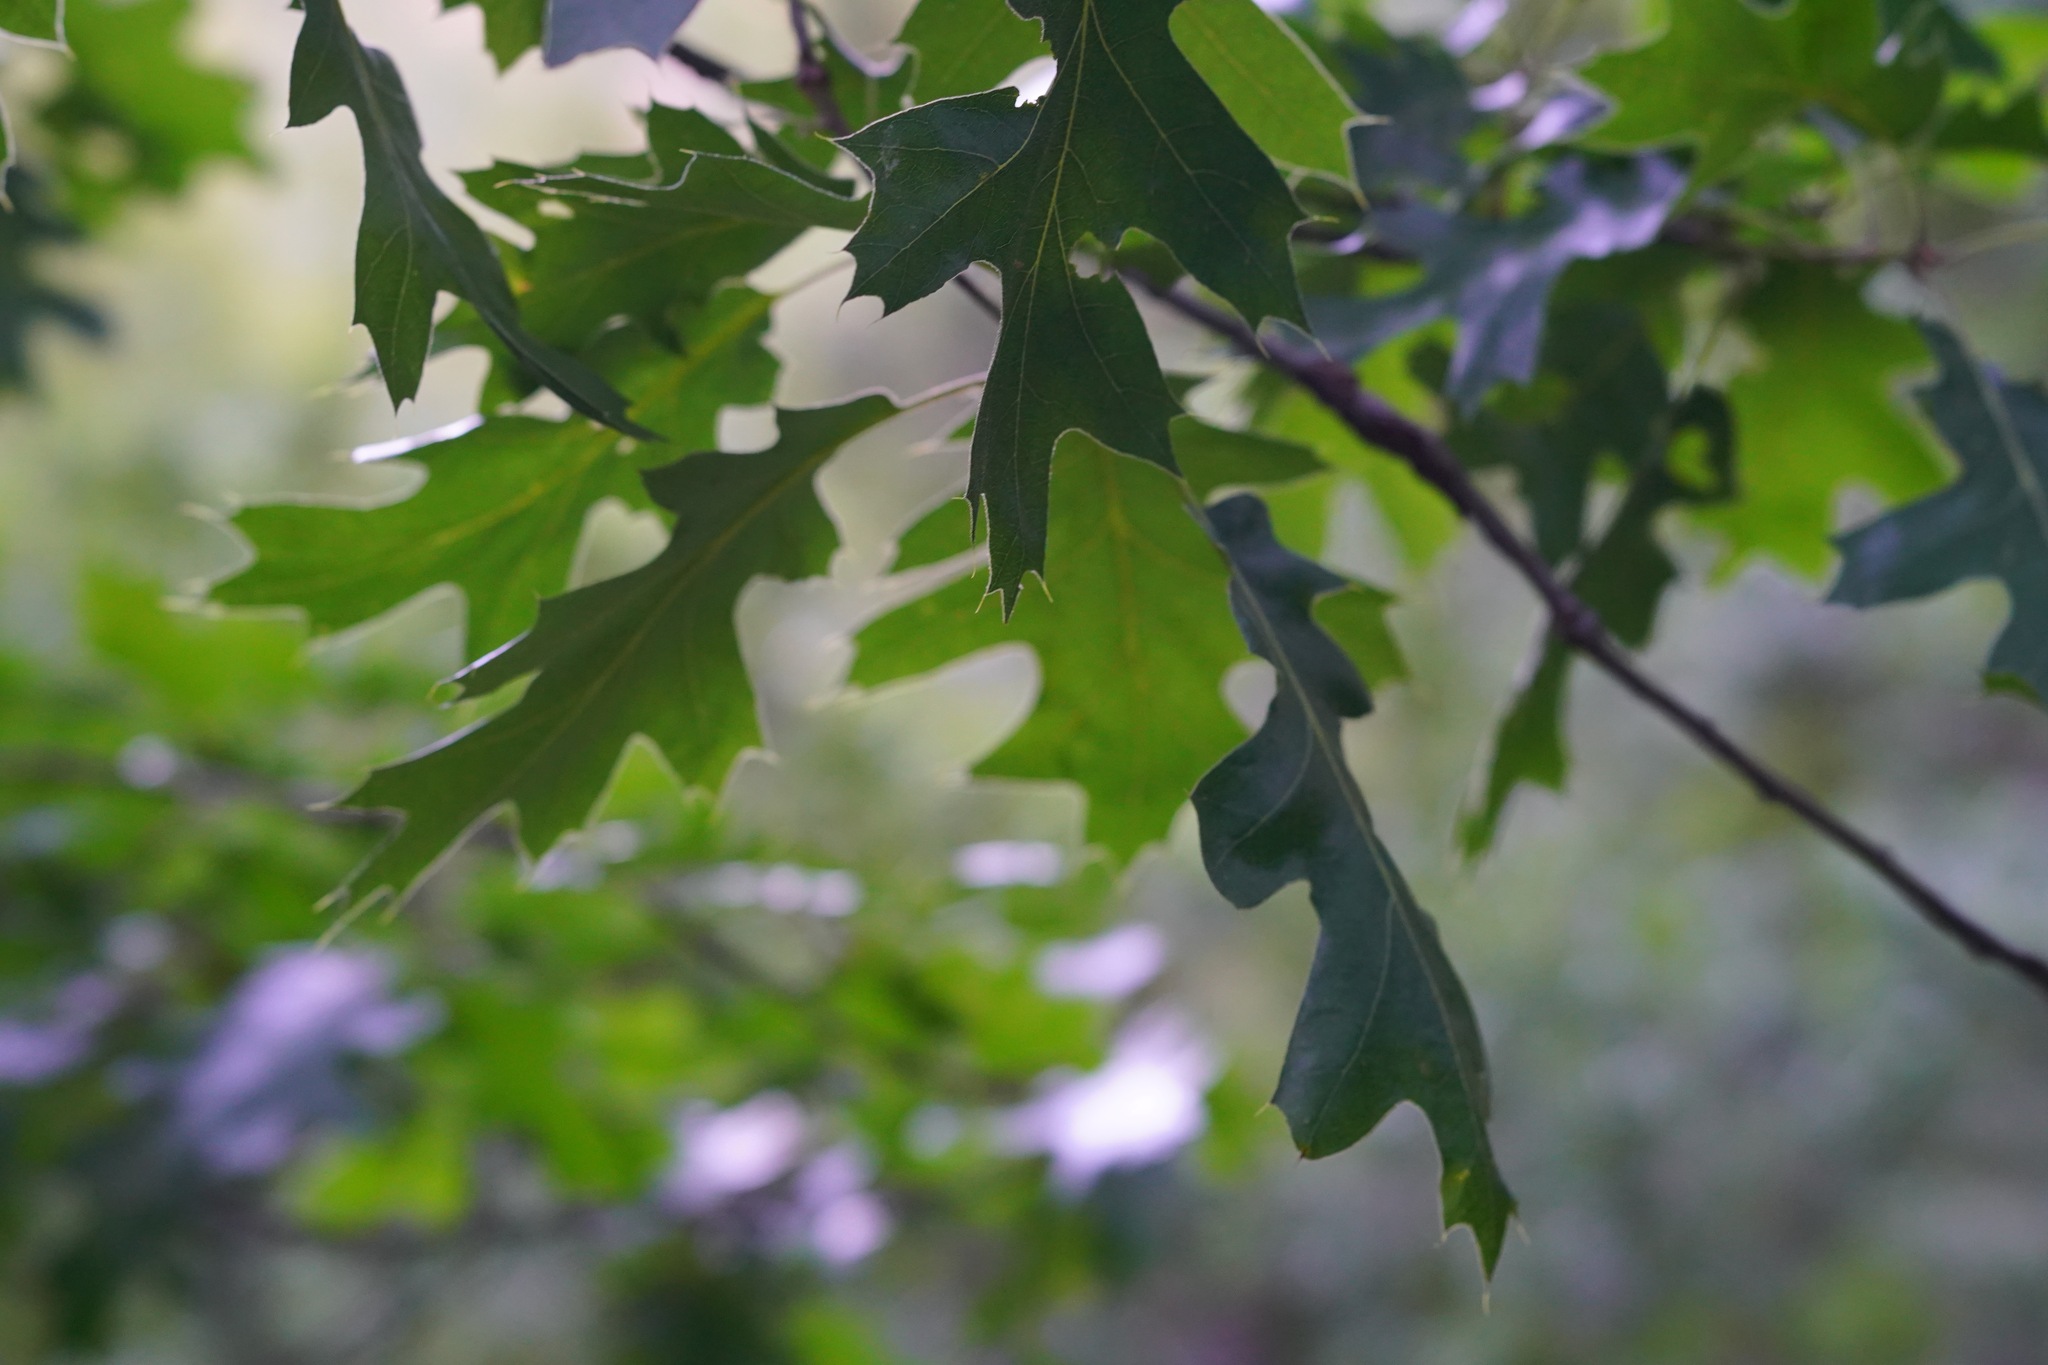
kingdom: Plantae
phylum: Tracheophyta
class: Magnoliopsida
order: Fagales
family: Fagaceae
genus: Quercus
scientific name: Quercus kelloggii
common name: California black oak
